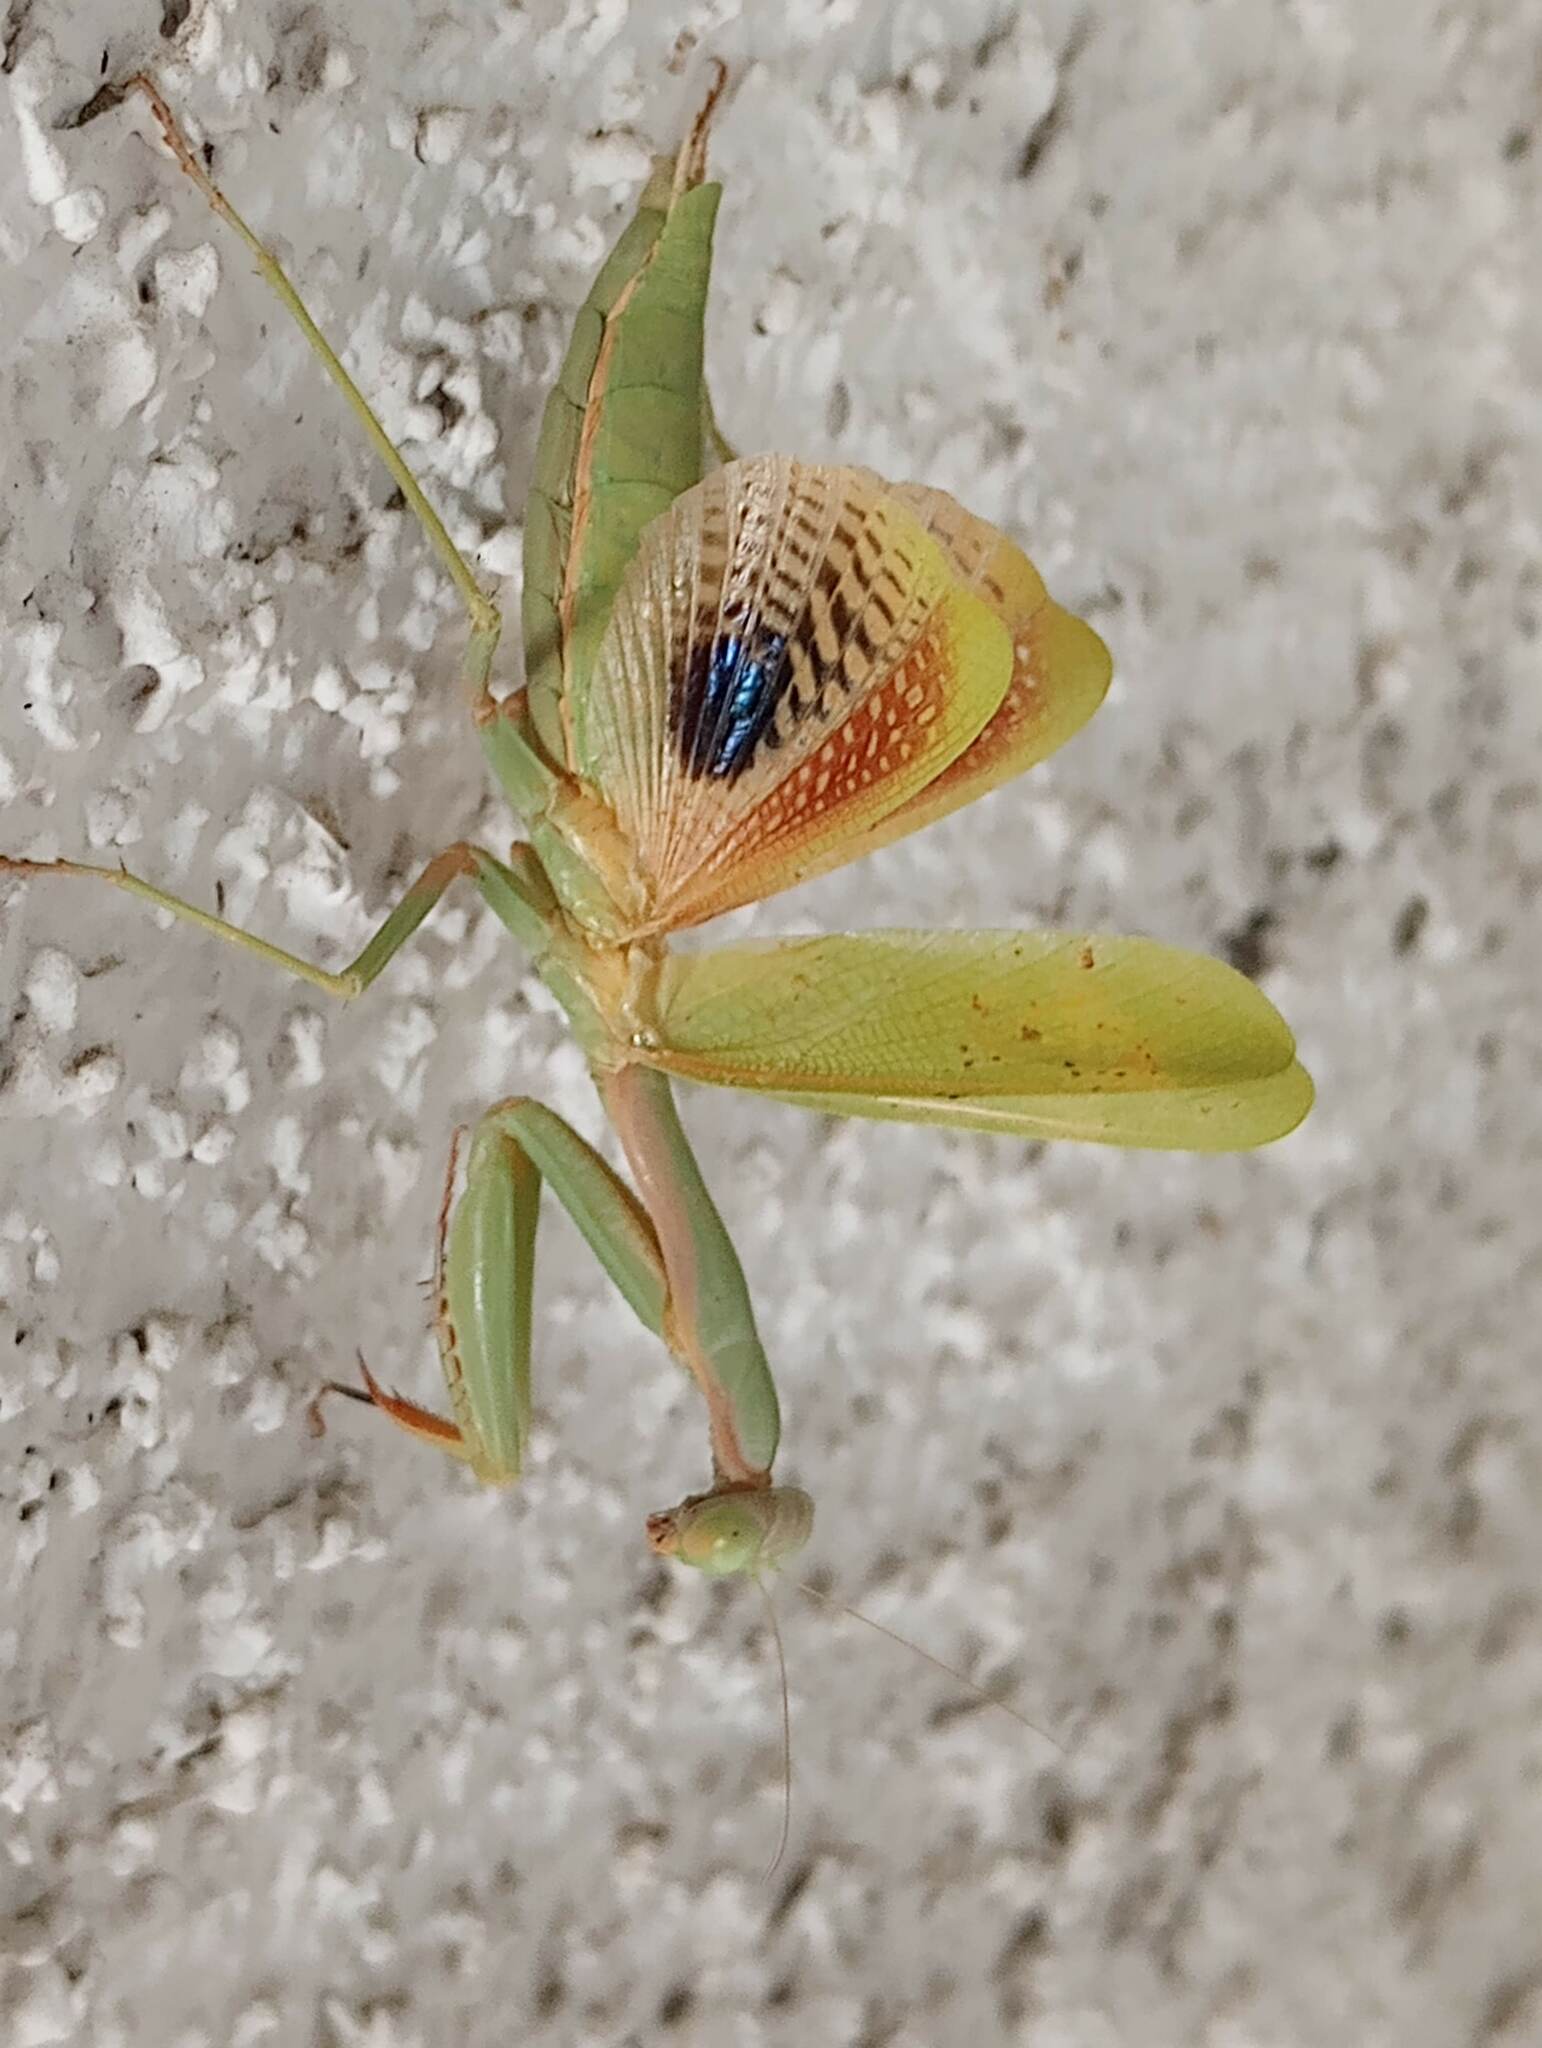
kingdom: Animalia
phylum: Arthropoda
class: Insecta
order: Mantodea
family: Eremiaphilidae
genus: Iris
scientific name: Iris oratoria
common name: Mediterranean mantis
